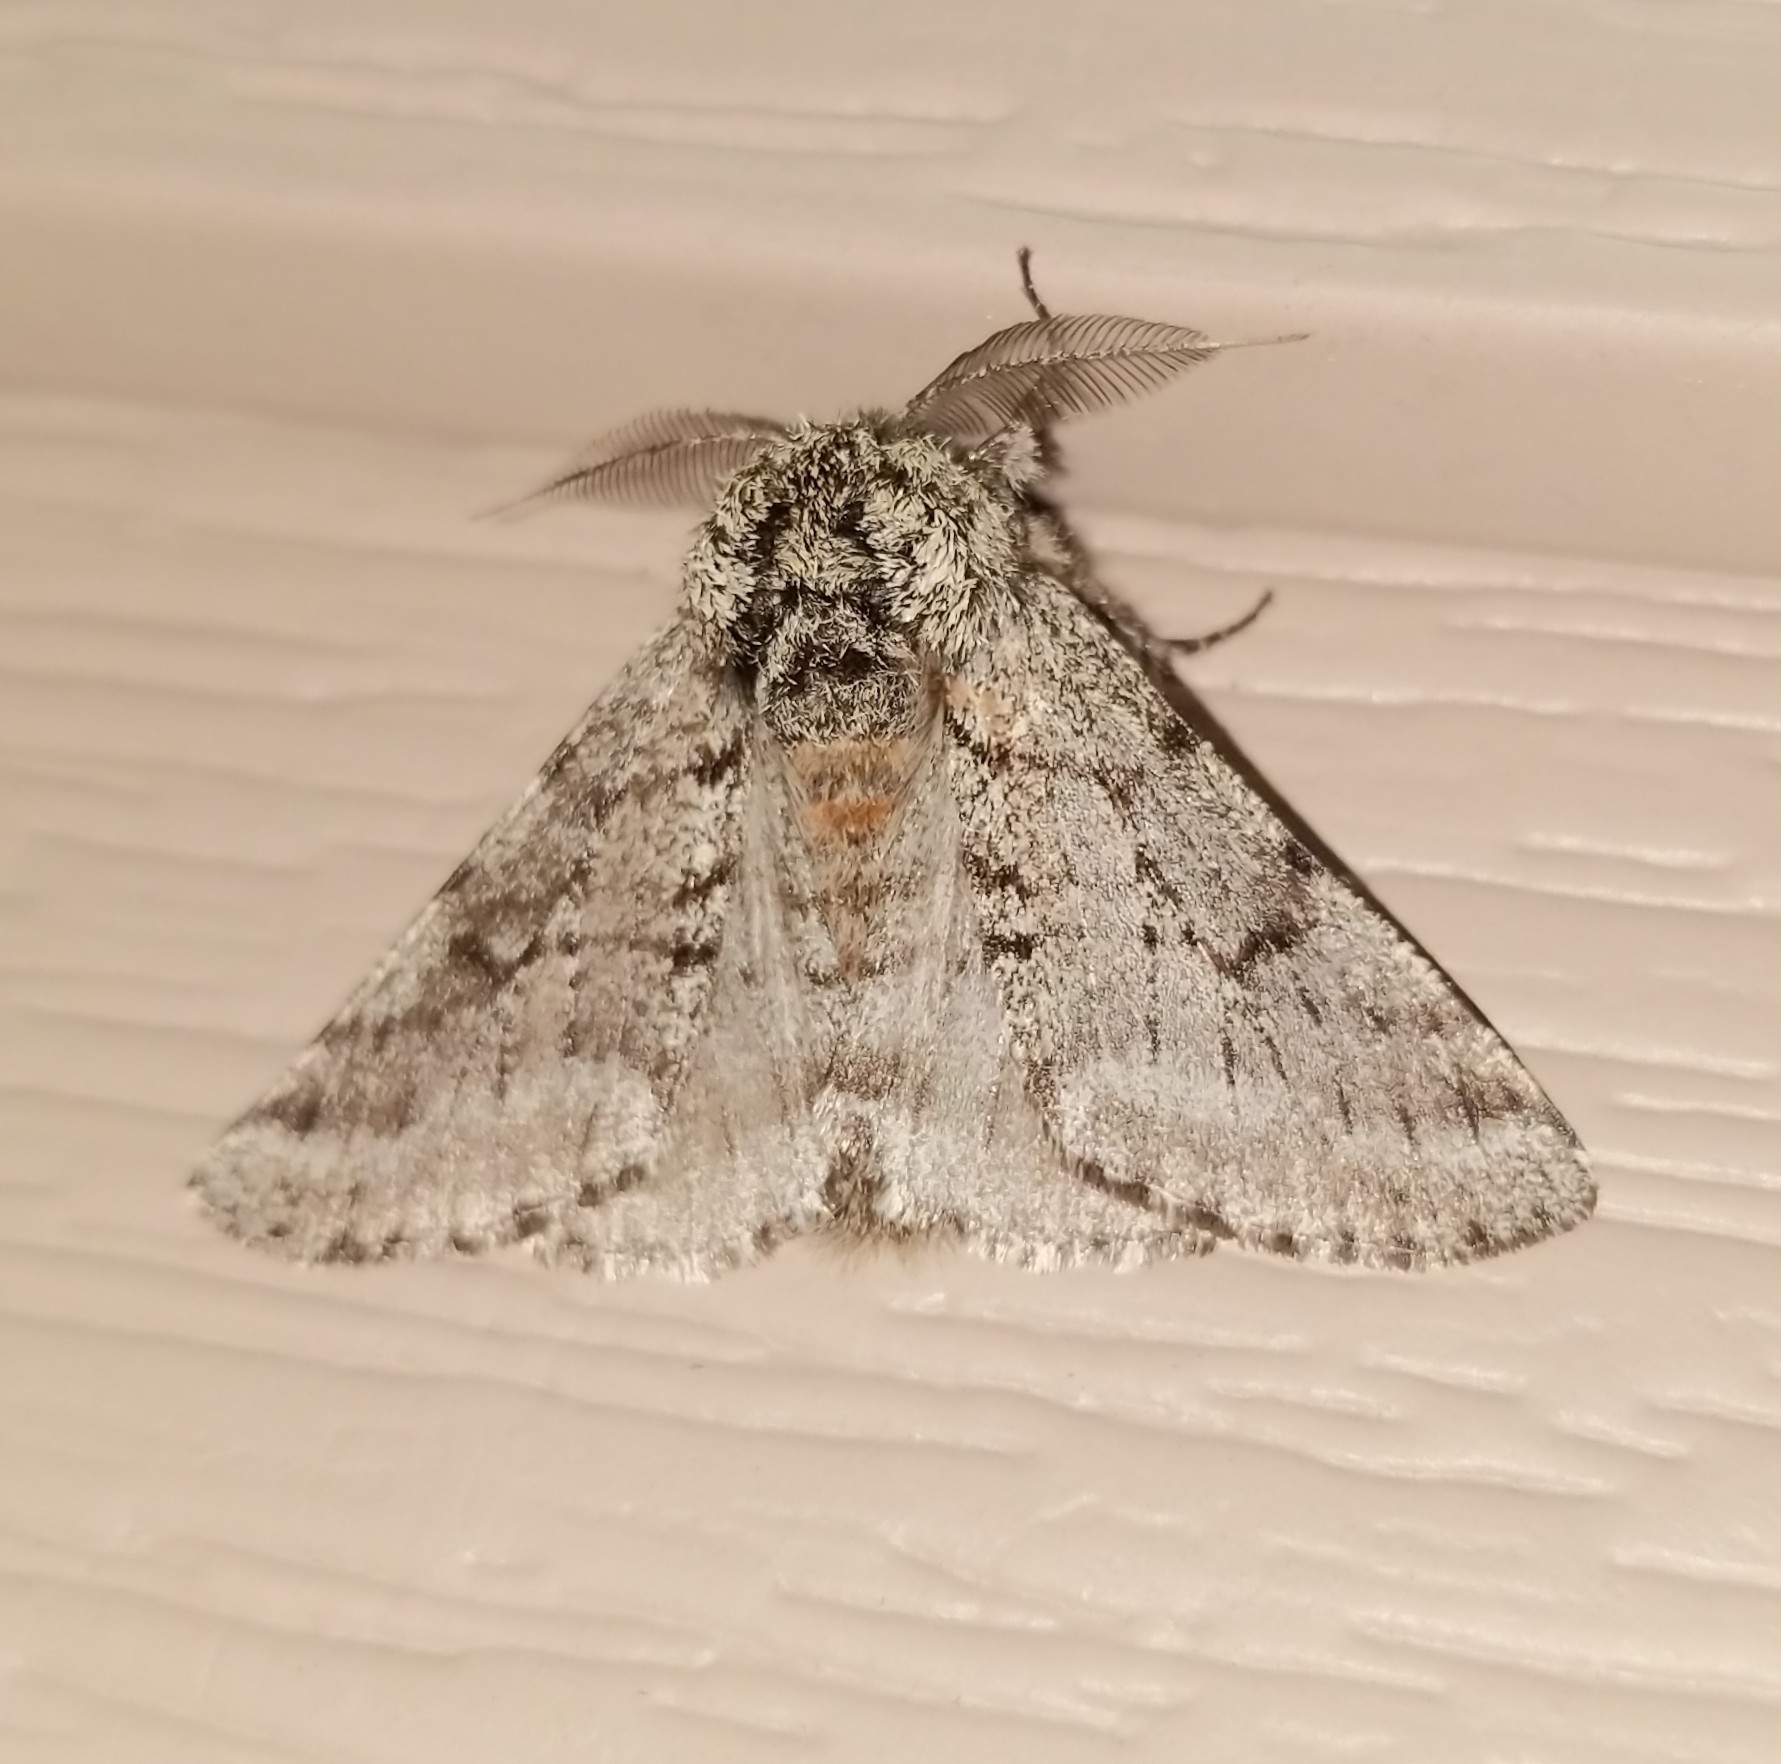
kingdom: Animalia
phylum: Arthropoda
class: Insecta
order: Lepidoptera
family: Geometridae
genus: Lycia
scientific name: Lycia ursaria
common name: Stout spanworm
